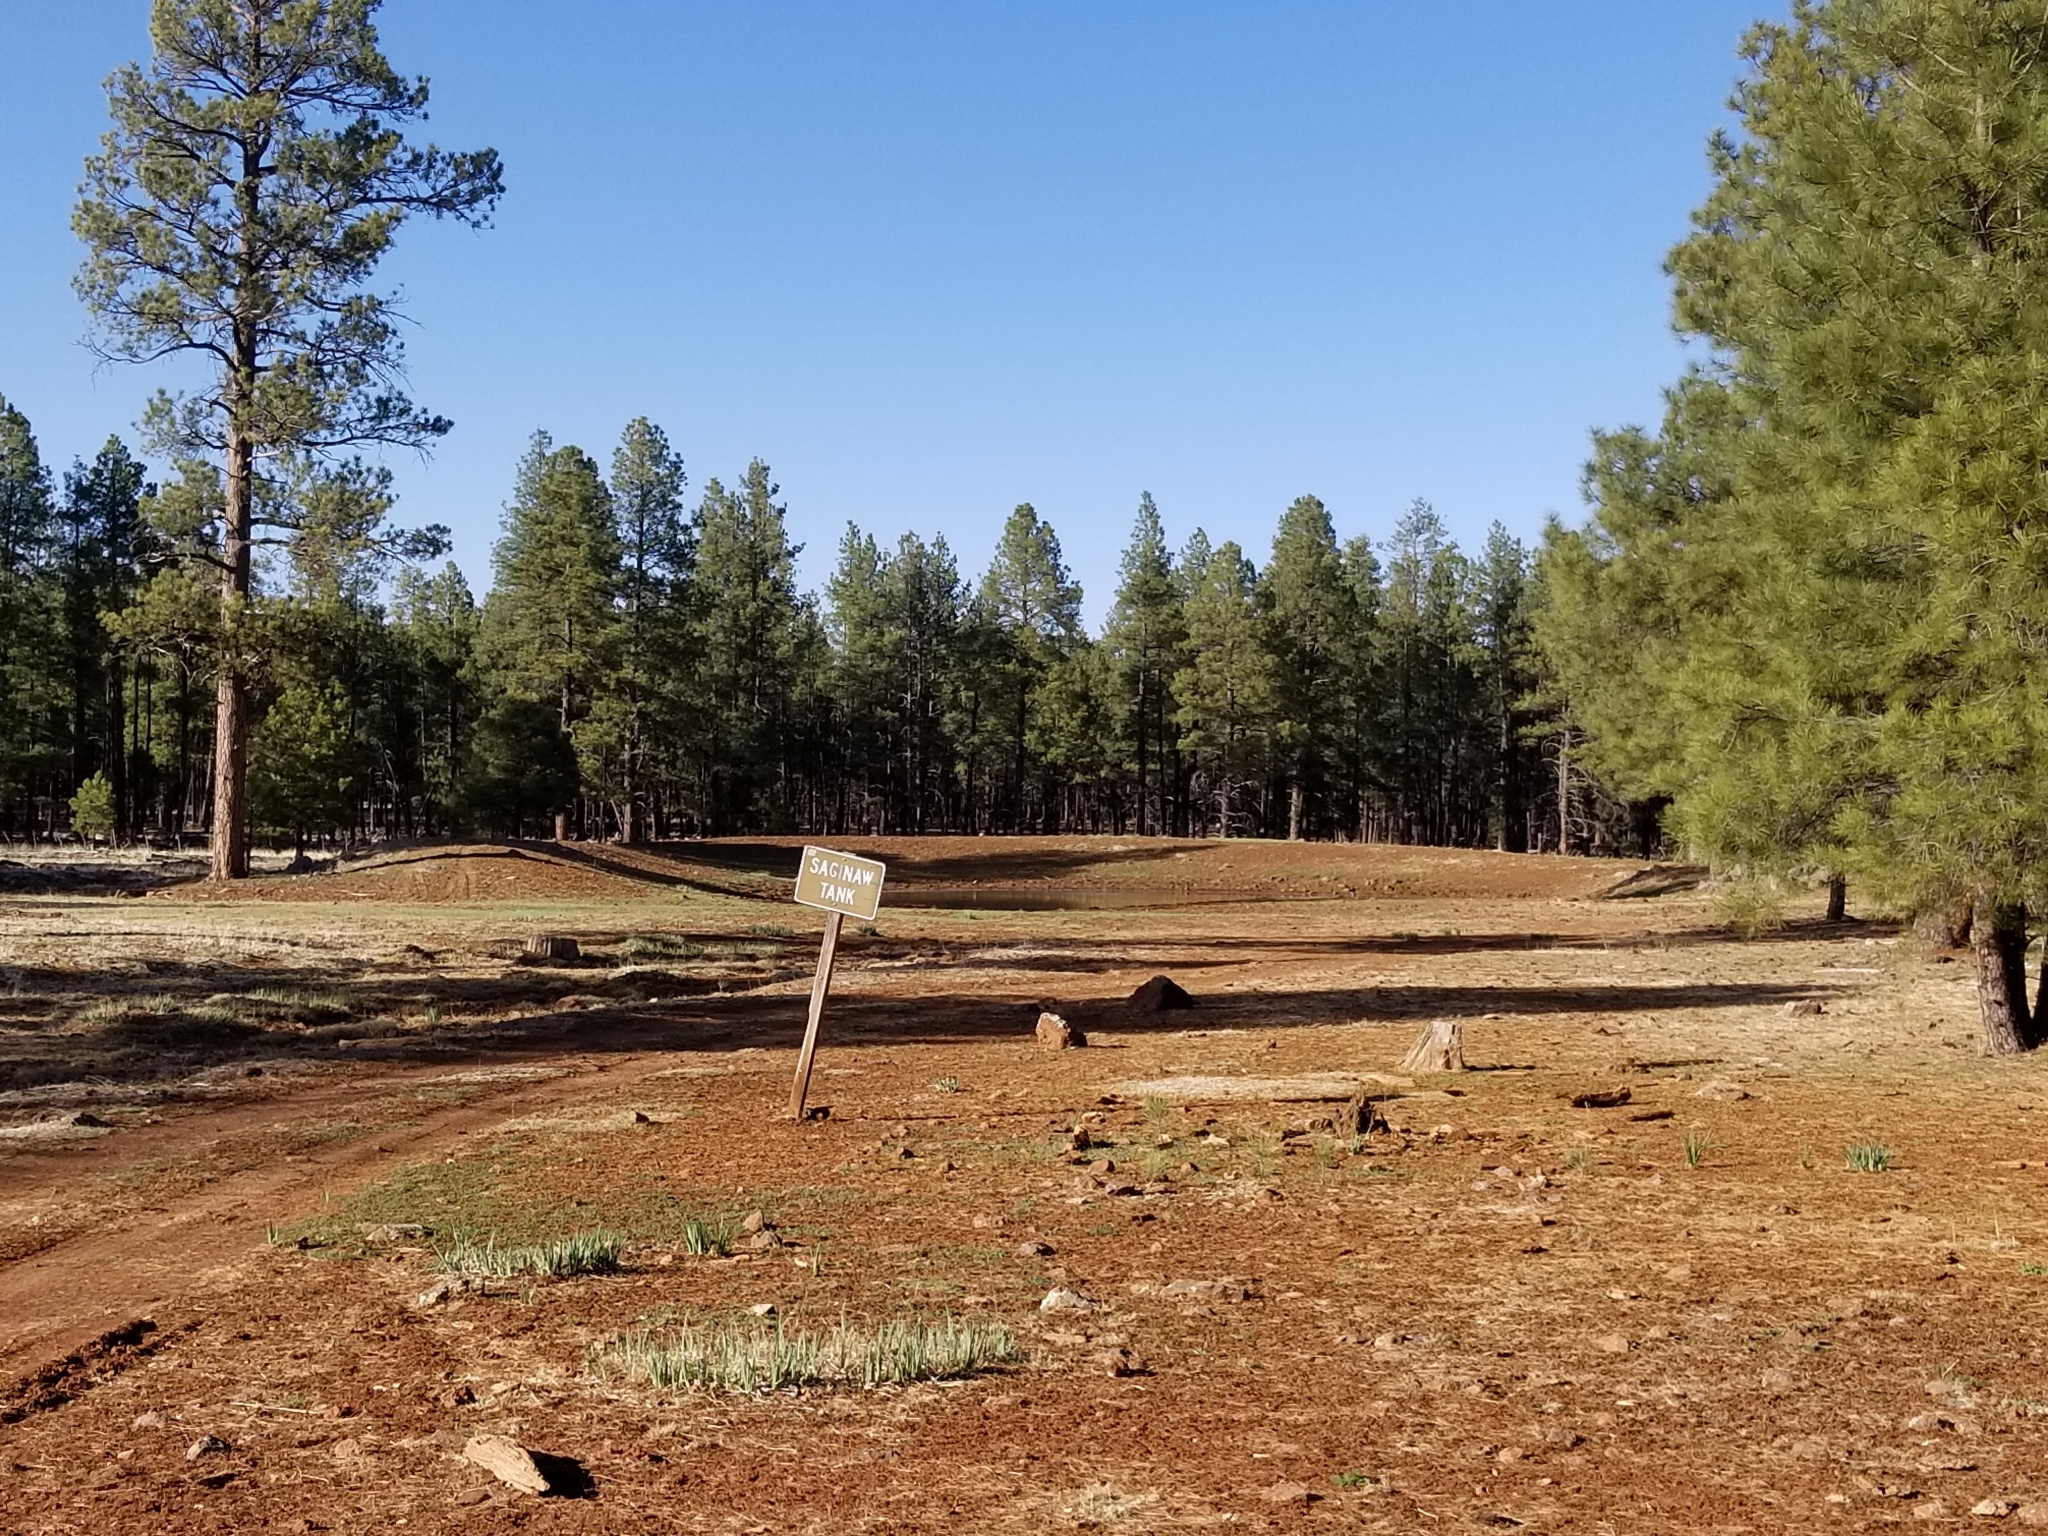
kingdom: Plantae
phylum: Tracheophyta
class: Pinopsida
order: Pinales
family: Pinaceae
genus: Pinus
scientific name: Pinus ponderosa
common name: Western yellow-pine
